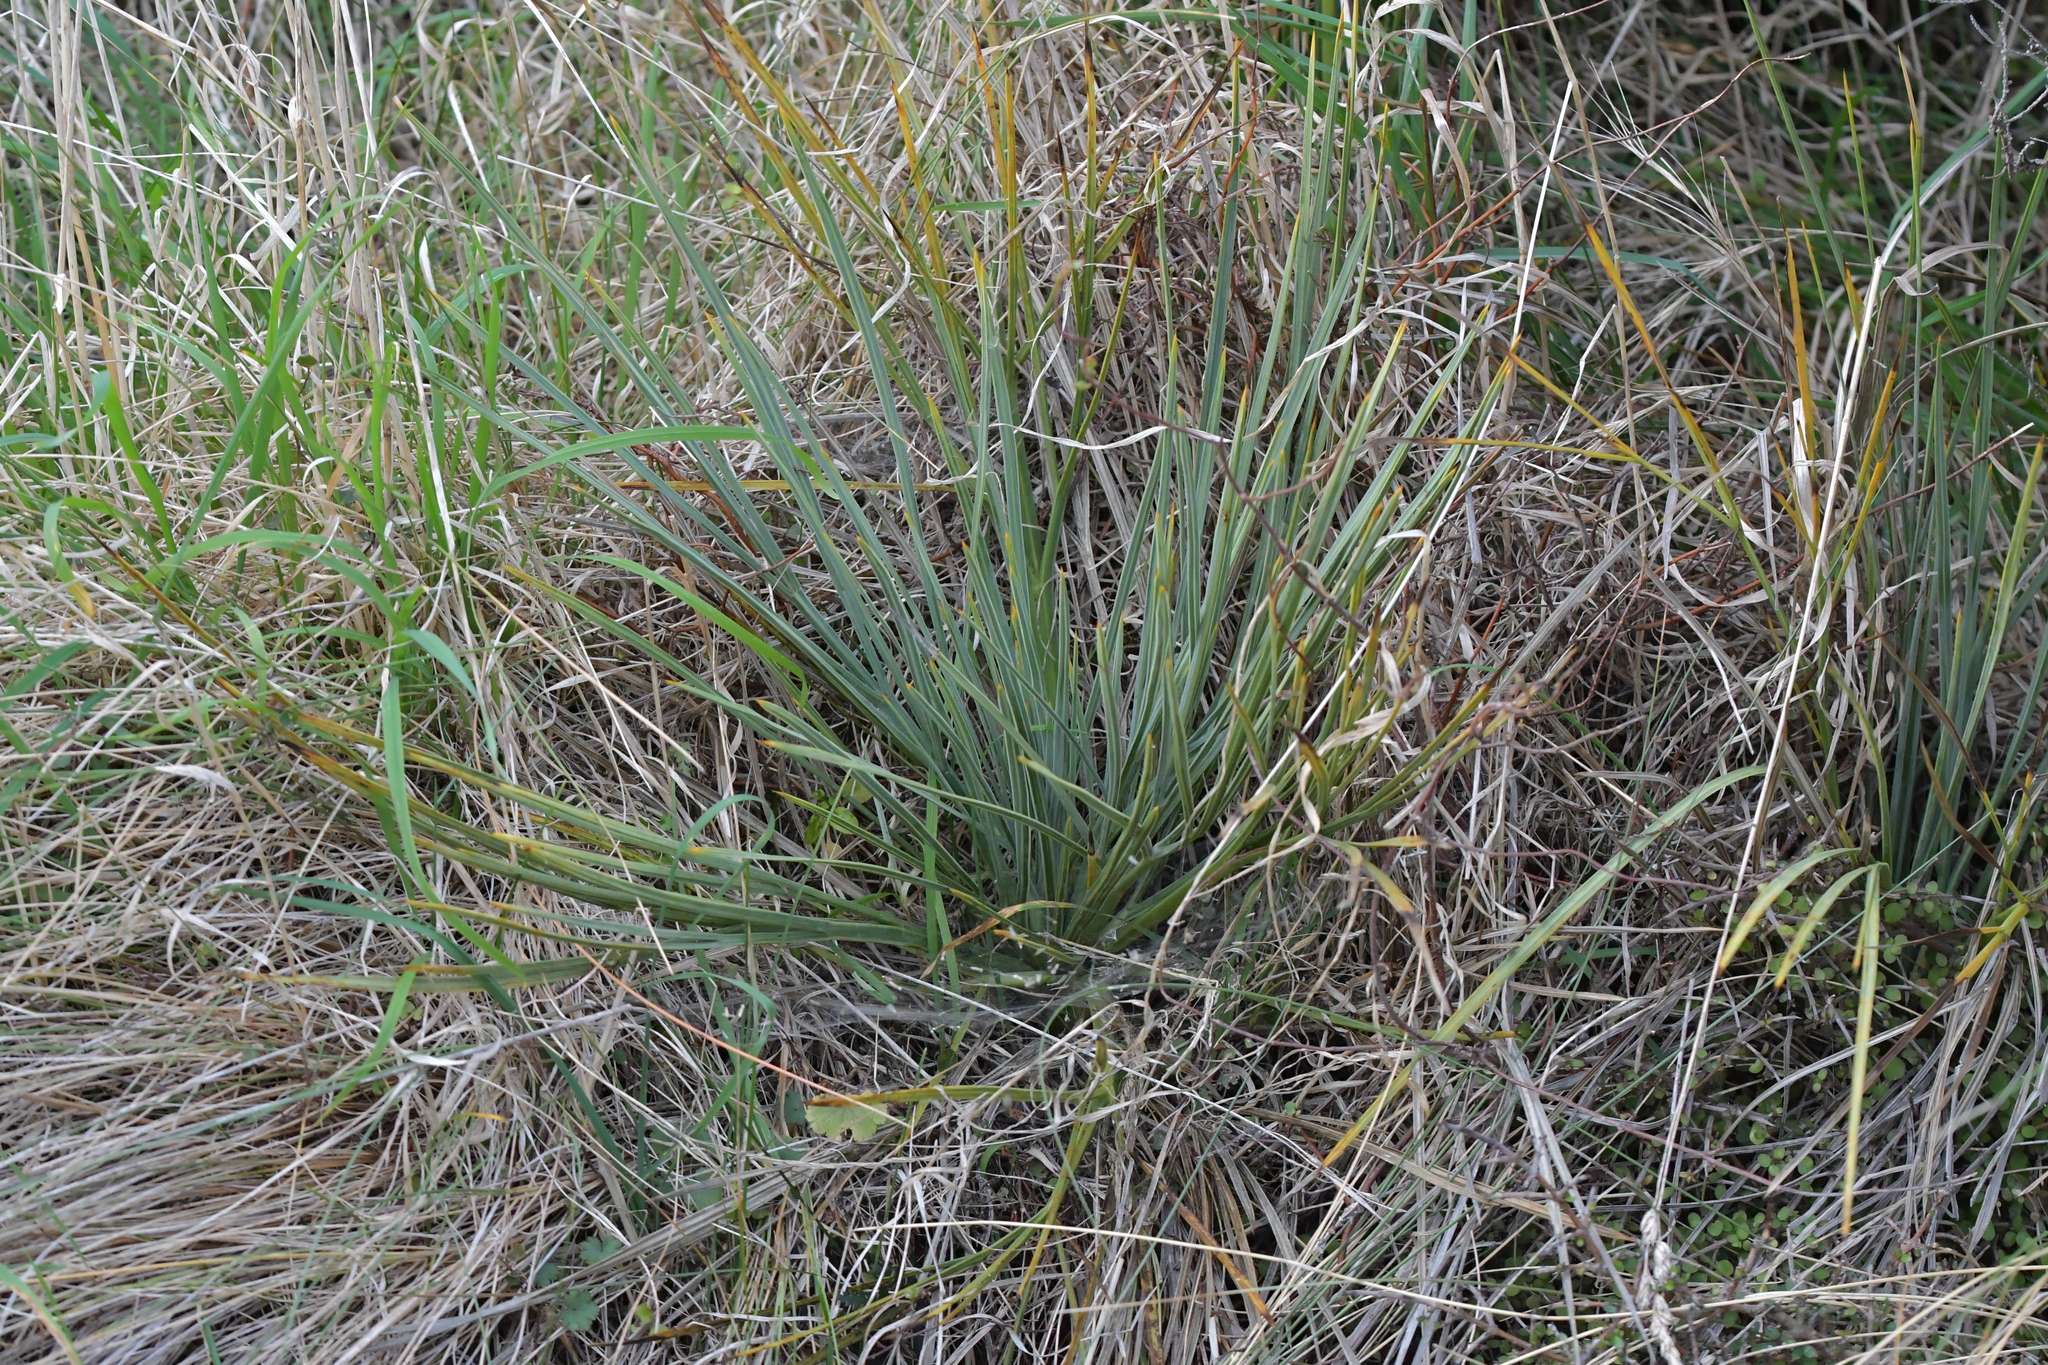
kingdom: Plantae
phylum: Tracheophyta
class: Magnoliopsida
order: Apiales
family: Apiaceae
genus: Aciphylla
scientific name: Aciphylla squarrosa
